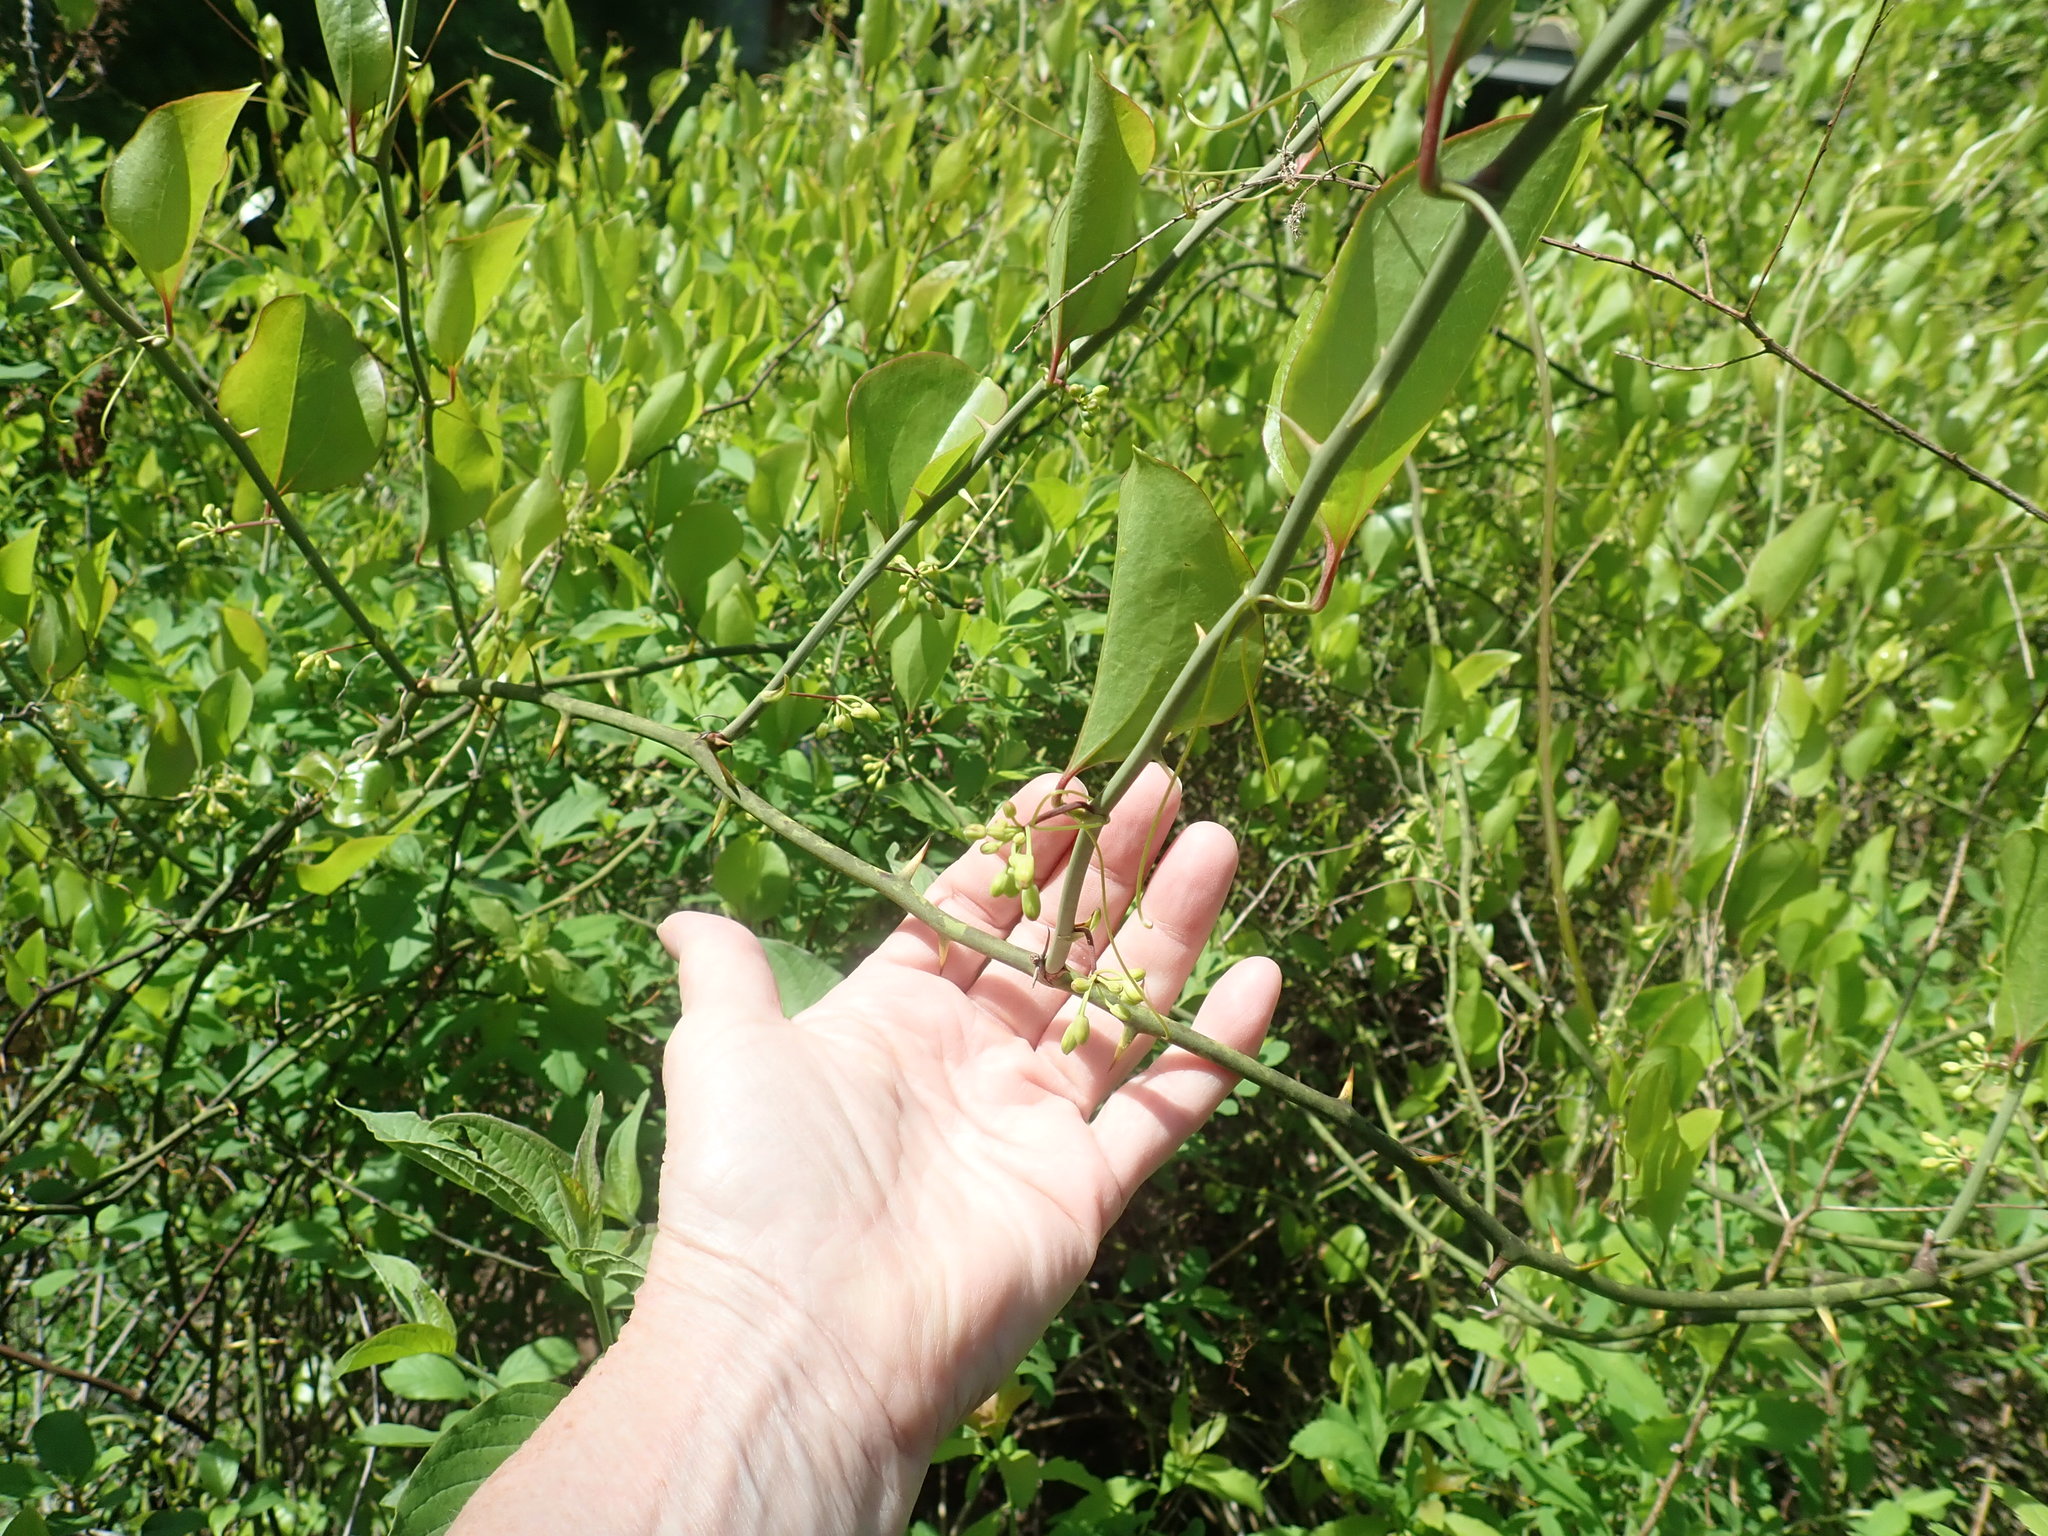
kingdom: Plantae
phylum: Tracheophyta
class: Liliopsida
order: Liliales
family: Smilacaceae
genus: Smilax
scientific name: Smilax rotundifolia
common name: Bullbriar
